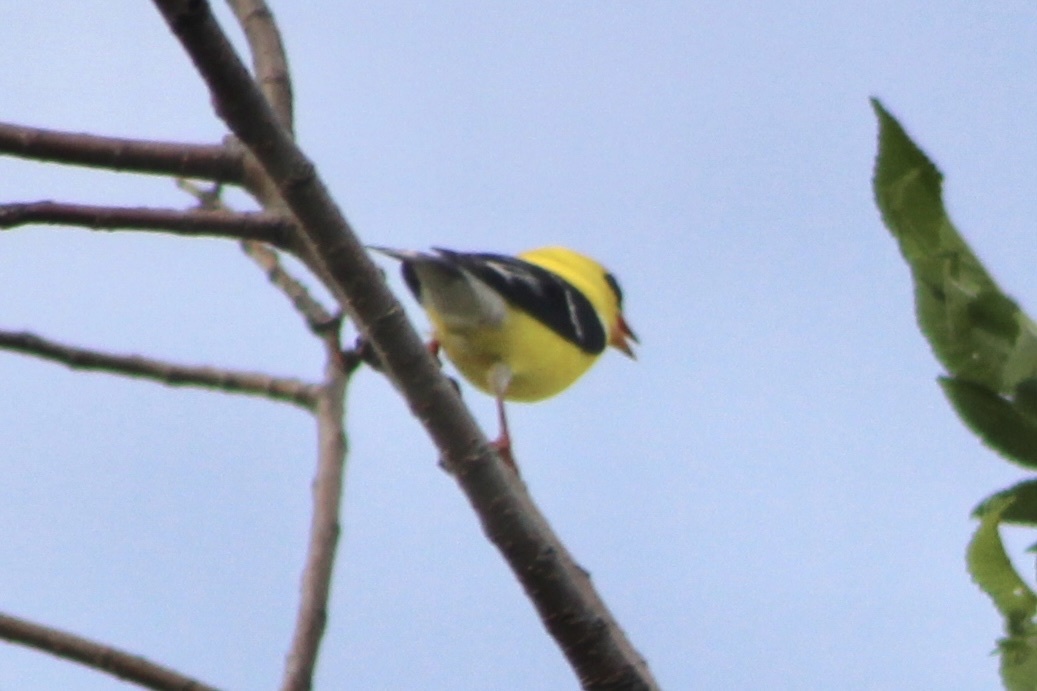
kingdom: Animalia
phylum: Chordata
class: Aves
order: Passeriformes
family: Fringillidae
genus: Spinus
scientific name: Spinus tristis
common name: American goldfinch
